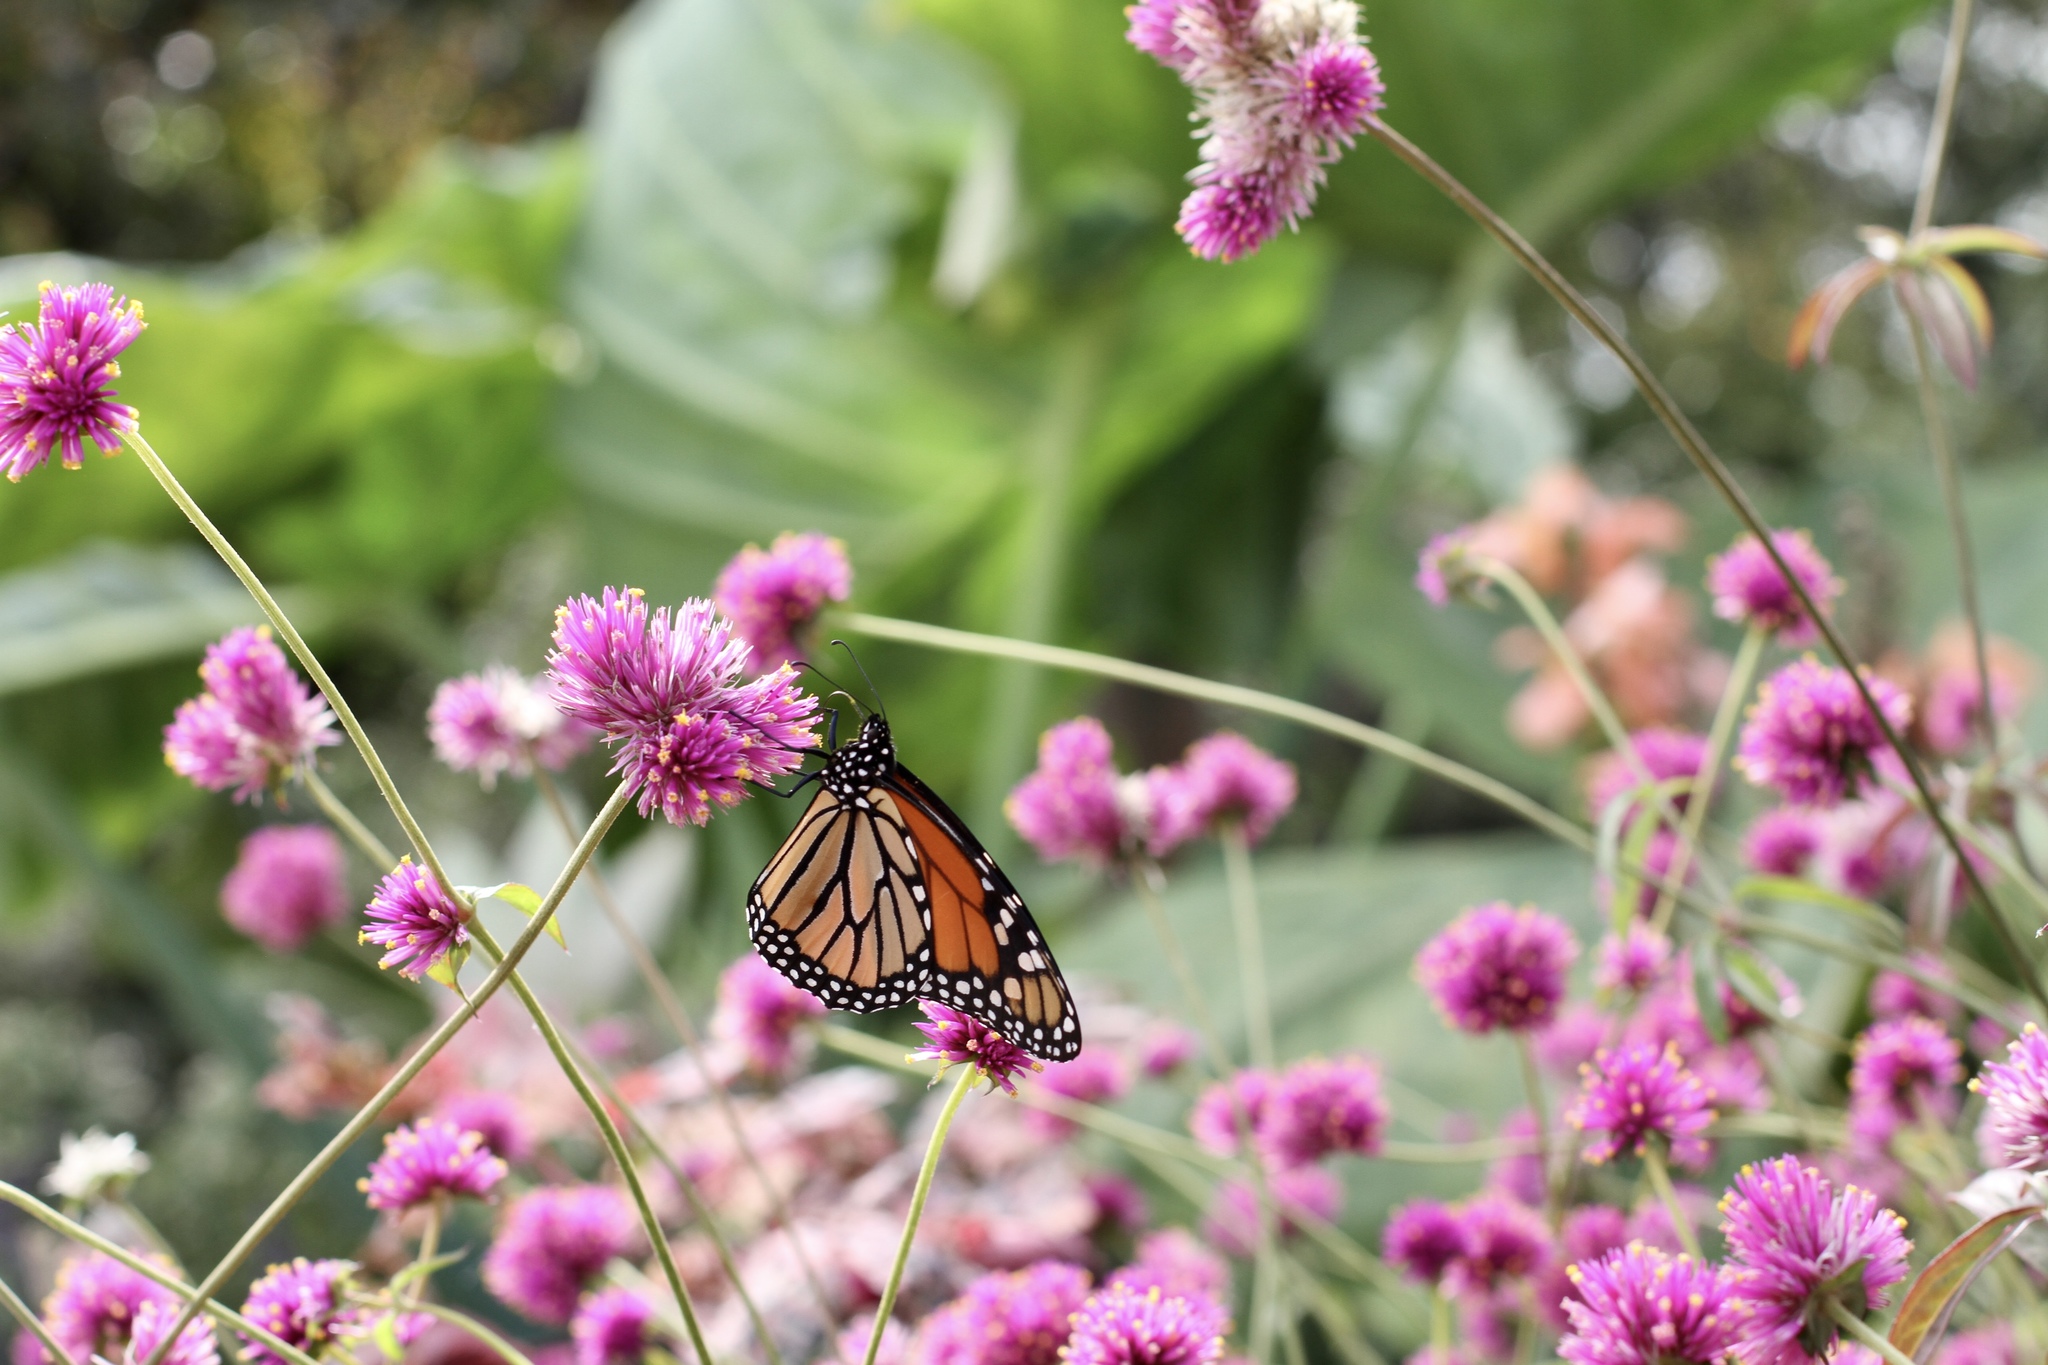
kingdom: Animalia
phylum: Arthropoda
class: Insecta
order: Lepidoptera
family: Nymphalidae
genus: Danaus
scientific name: Danaus plexippus
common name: Monarch
